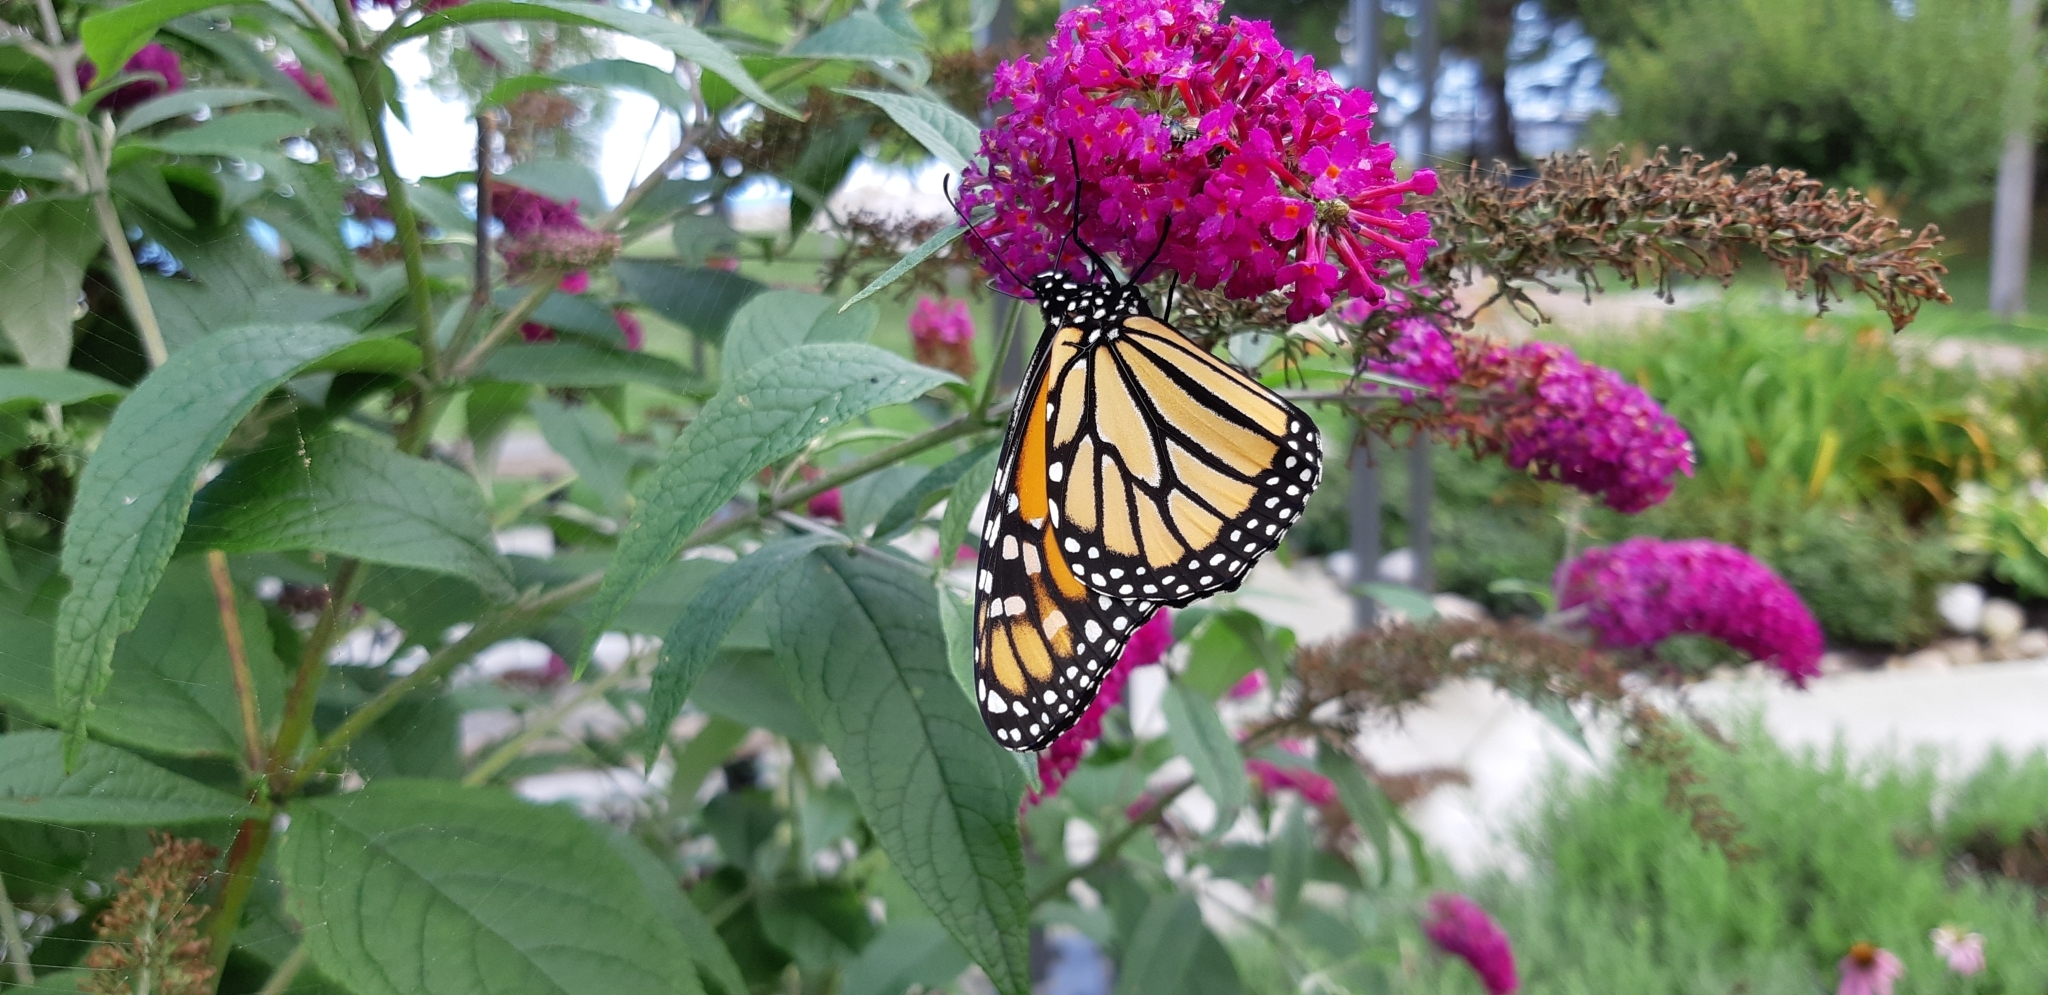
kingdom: Animalia
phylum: Arthropoda
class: Insecta
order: Lepidoptera
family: Nymphalidae
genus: Danaus
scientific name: Danaus plexippus
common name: Monarch
